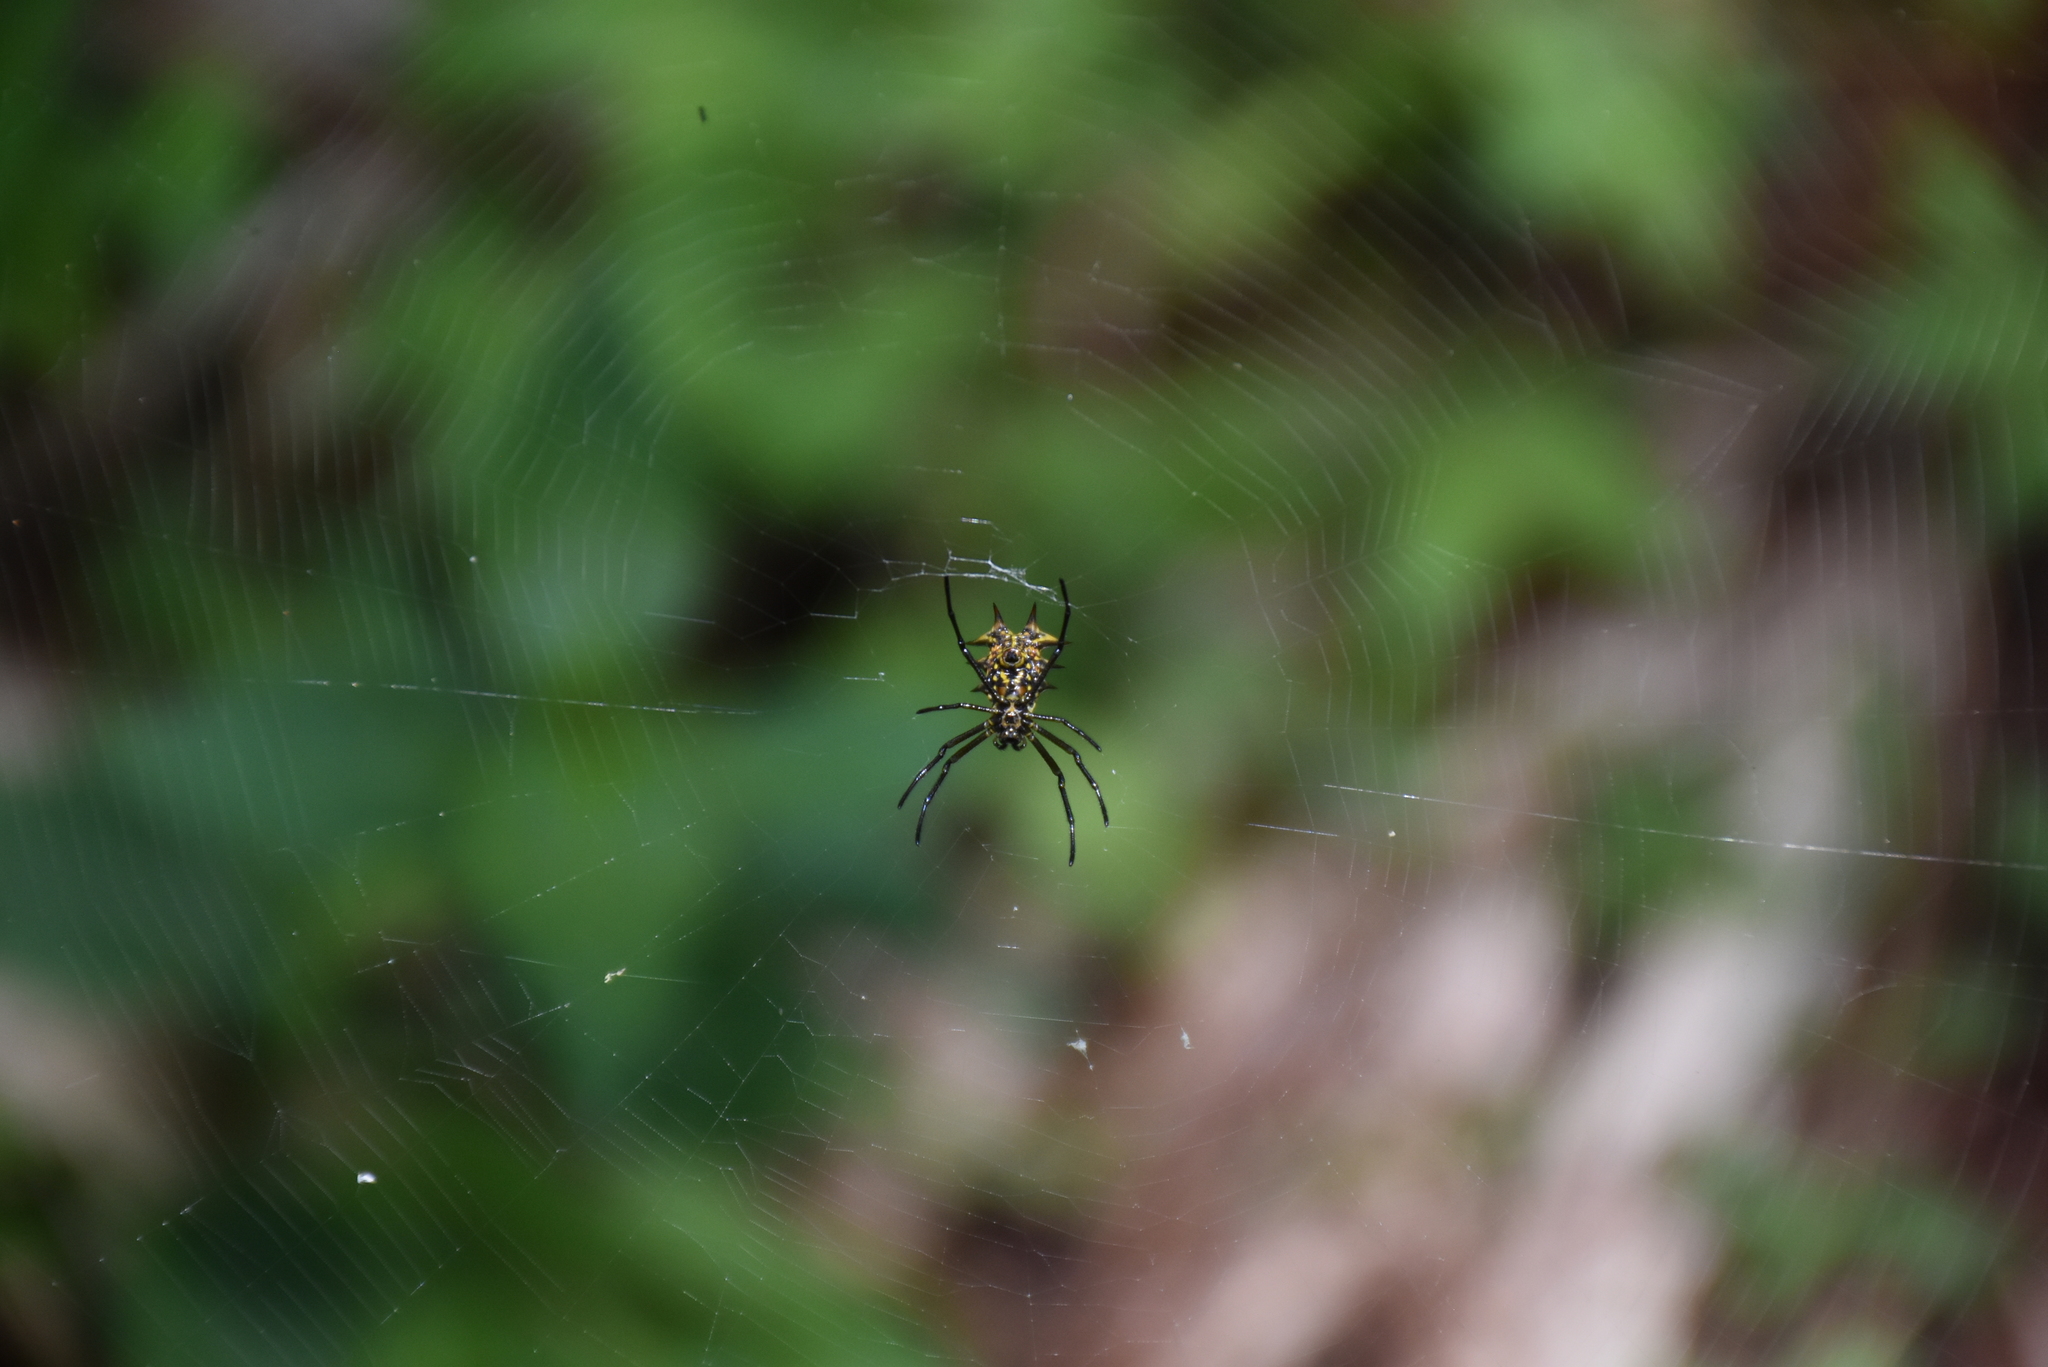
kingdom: Animalia
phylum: Arthropoda
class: Arachnida
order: Araneae
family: Araneidae
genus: Micrathena
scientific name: Micrathena zilchi
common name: Orb weavers
